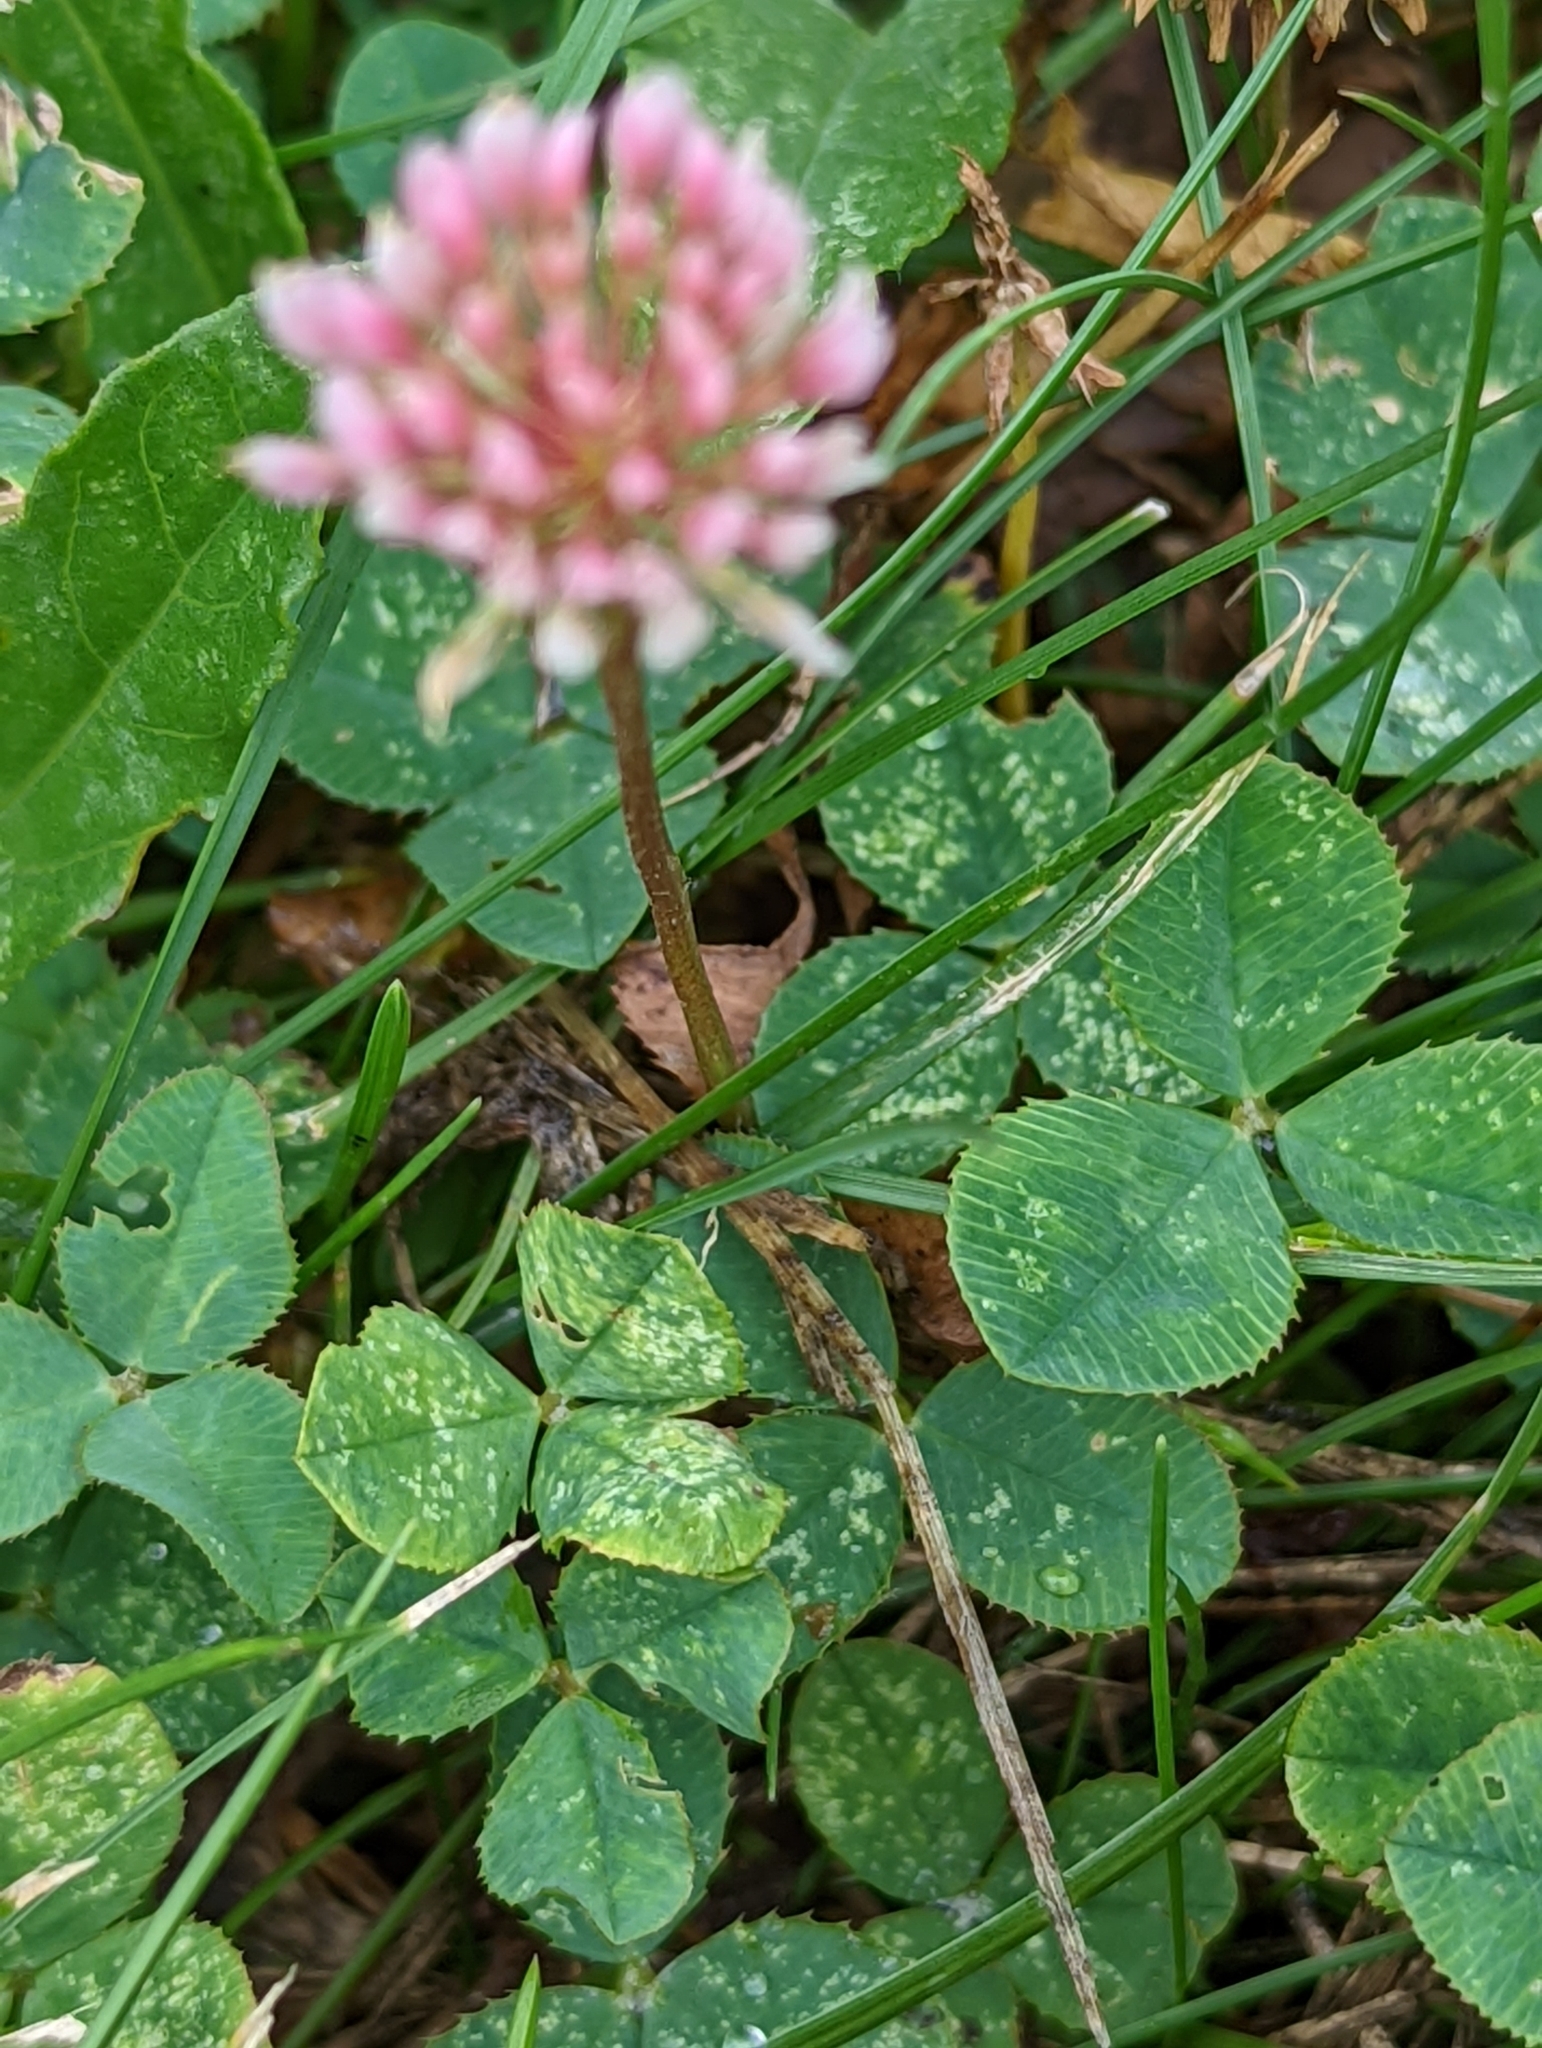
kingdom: Plantae
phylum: Tracheophyta
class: Magnoliopsida
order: Fabales
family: Fabaceae
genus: Trifolium
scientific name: Trifolium repens
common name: White clover
